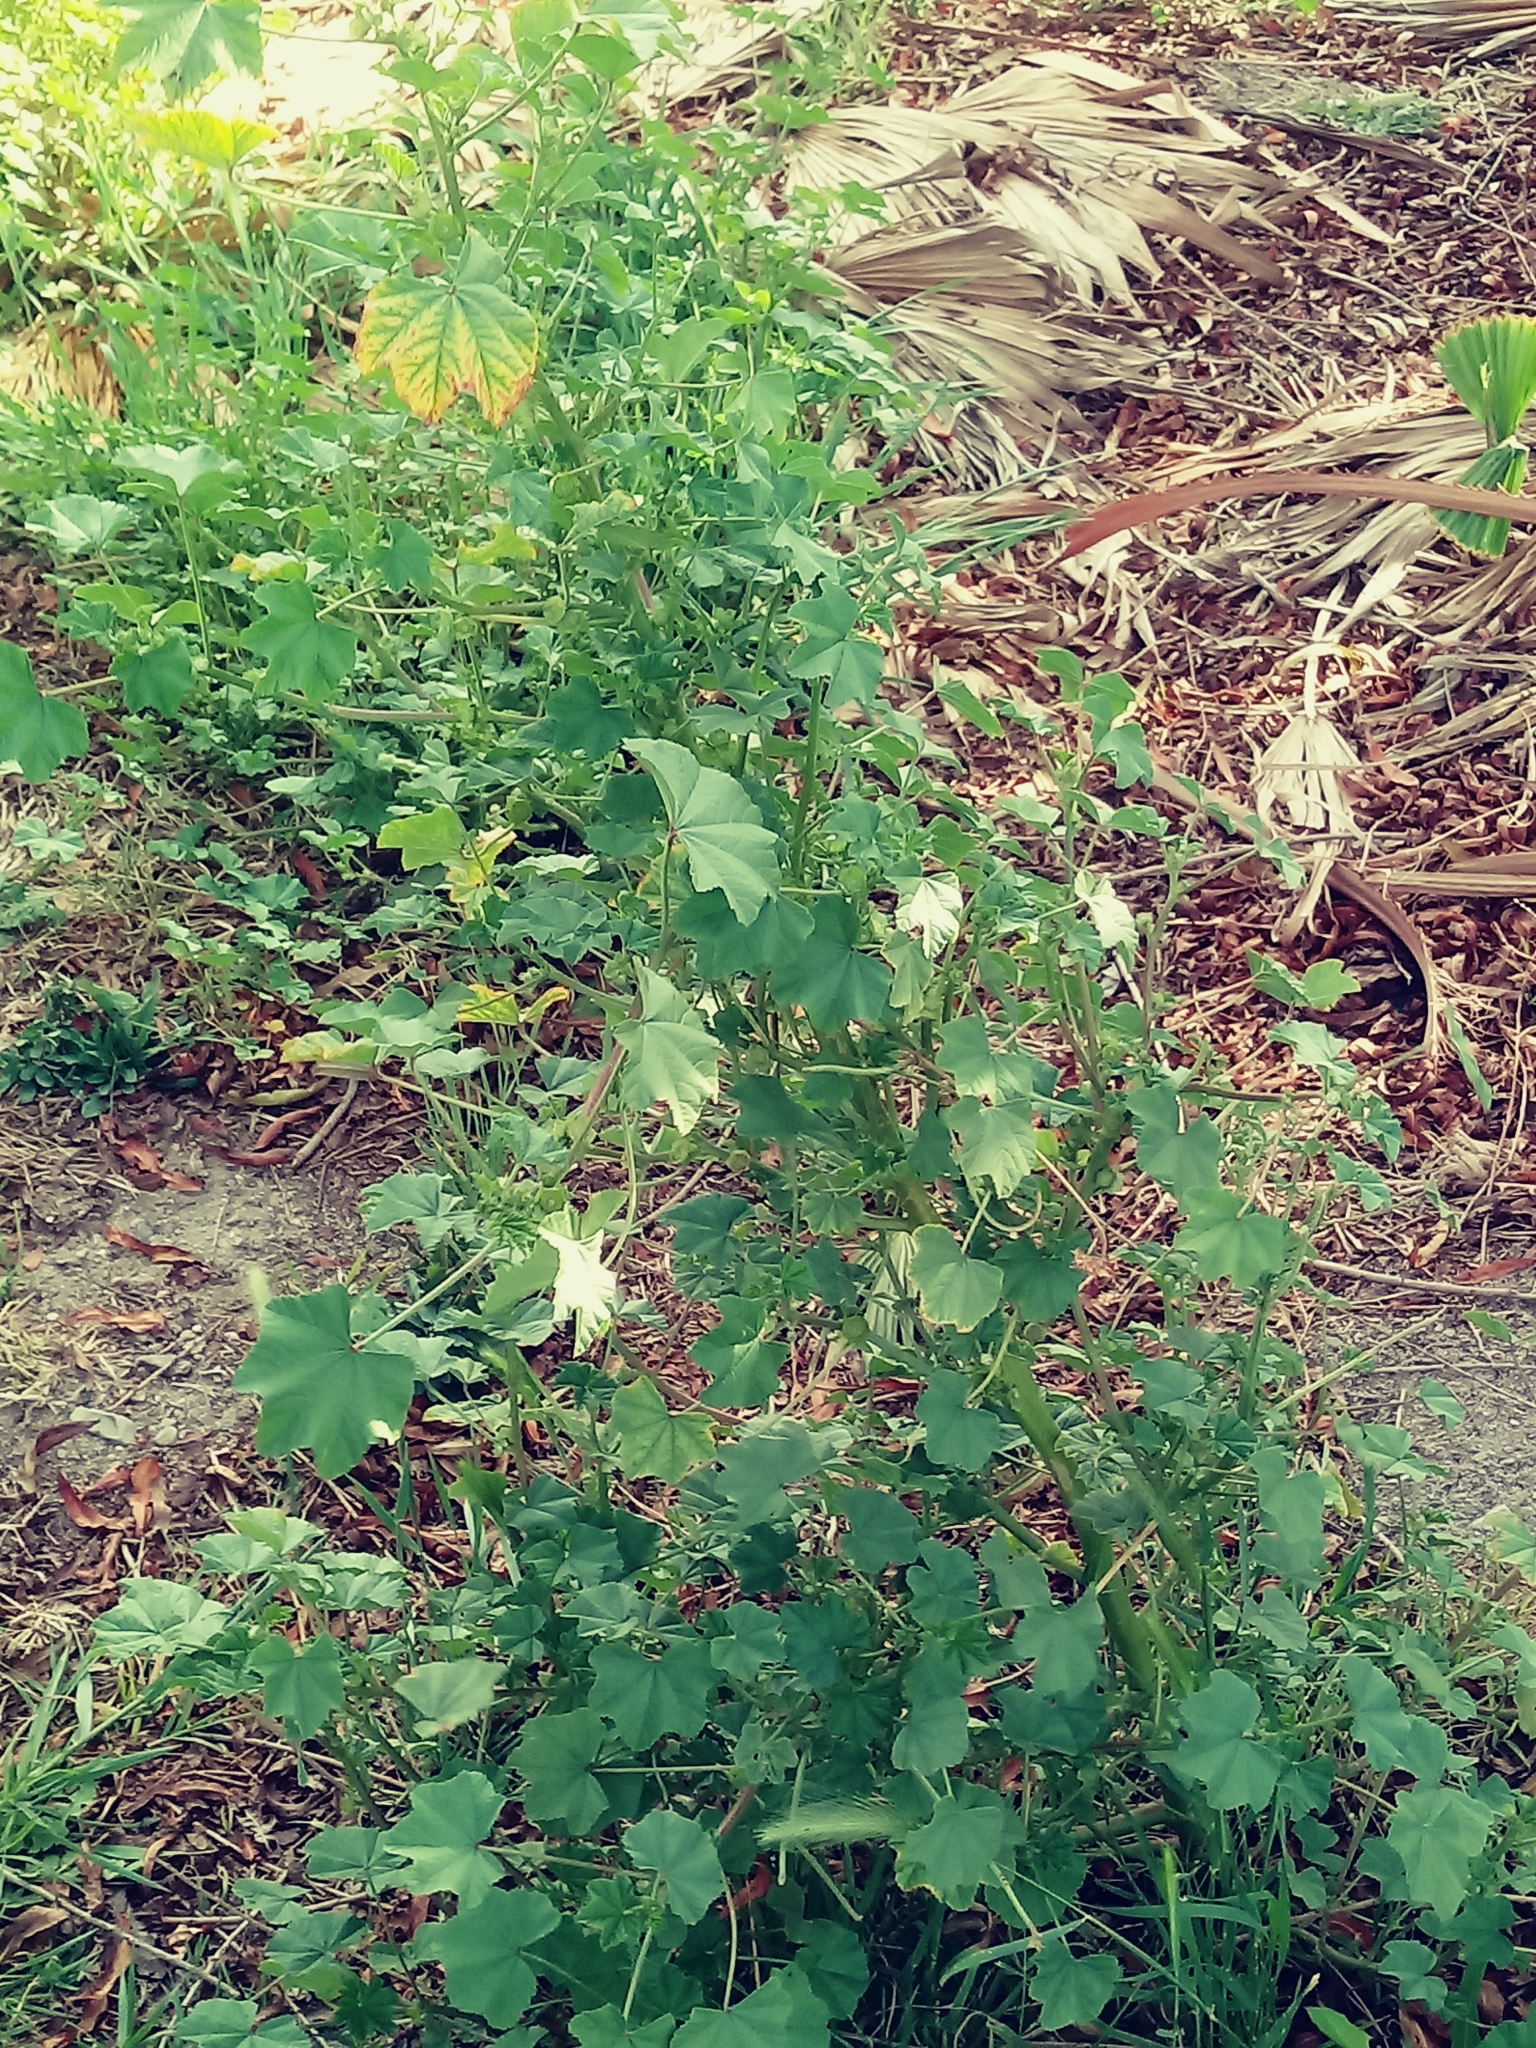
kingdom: Plantae
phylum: Tracheophyta
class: Magnoliopsida
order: Malvales
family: Malvaceae
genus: Malva
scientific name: Malva parviflora
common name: Least mallow
